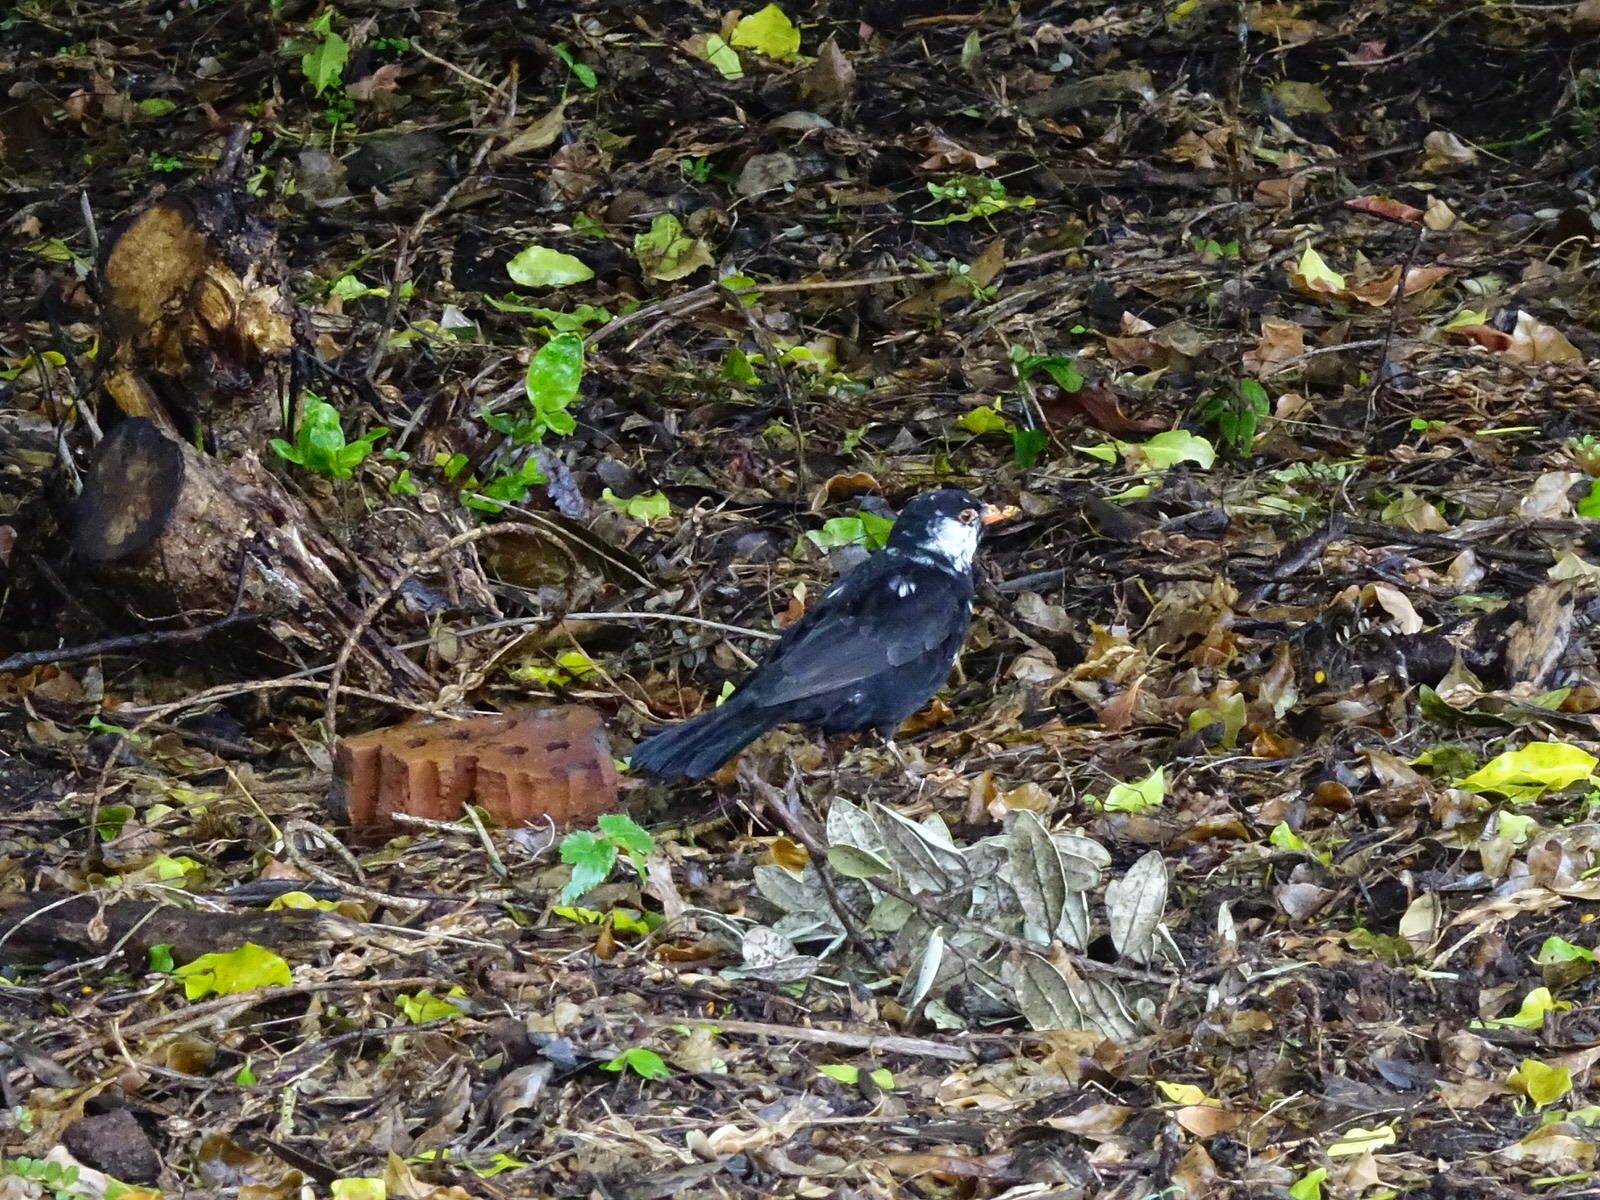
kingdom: Animalia
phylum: Chordata
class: Aves
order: Passeriformes
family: Turdidae
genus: Turdus
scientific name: Turdus merula
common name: Common blackbird
